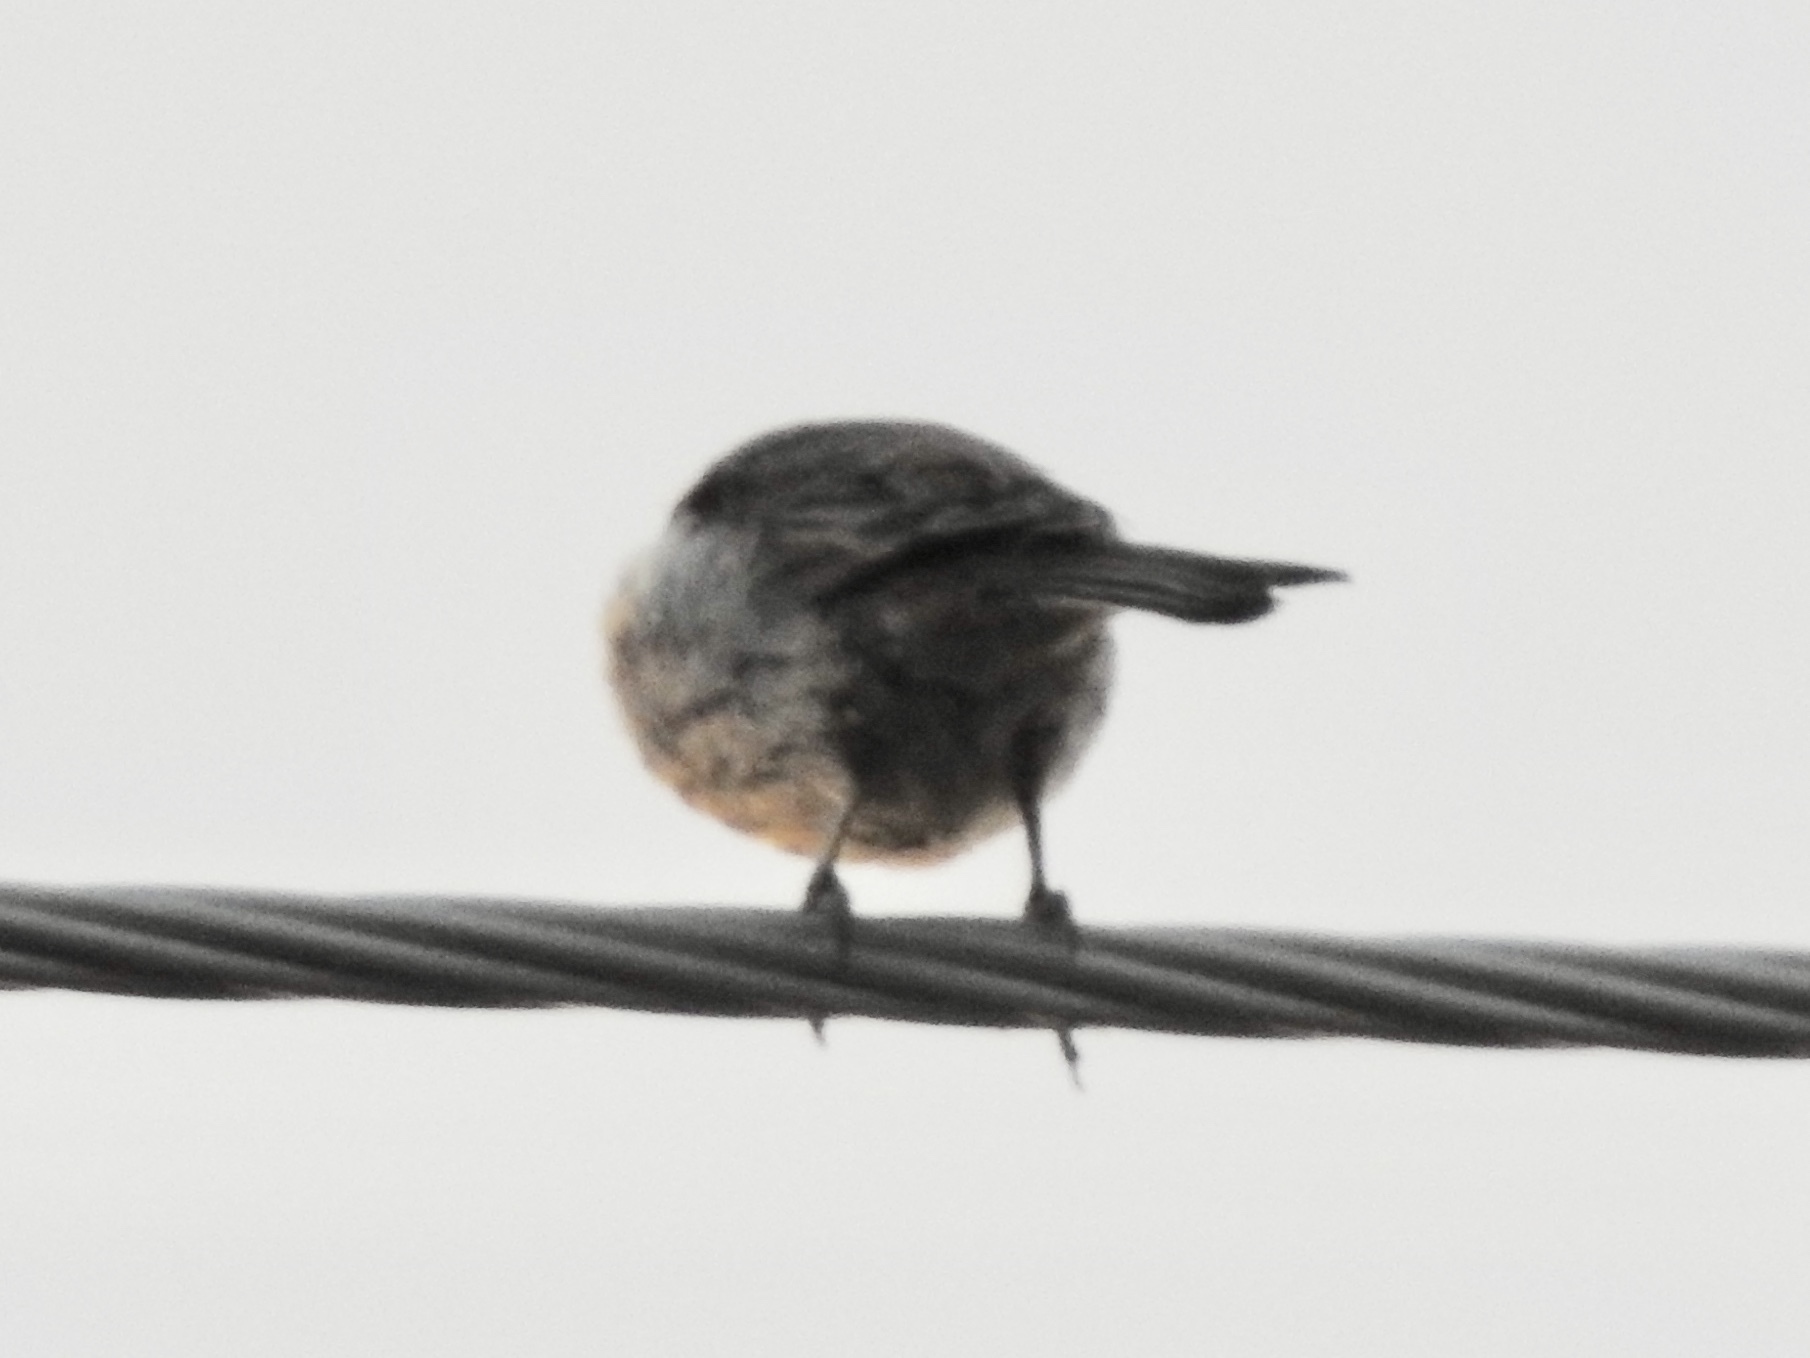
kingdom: Animalia
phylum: Chordata
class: Aves
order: Passeriformes
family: Fringillidae
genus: Haemorhous
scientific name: Haemorhous mexicanus
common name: House finch
